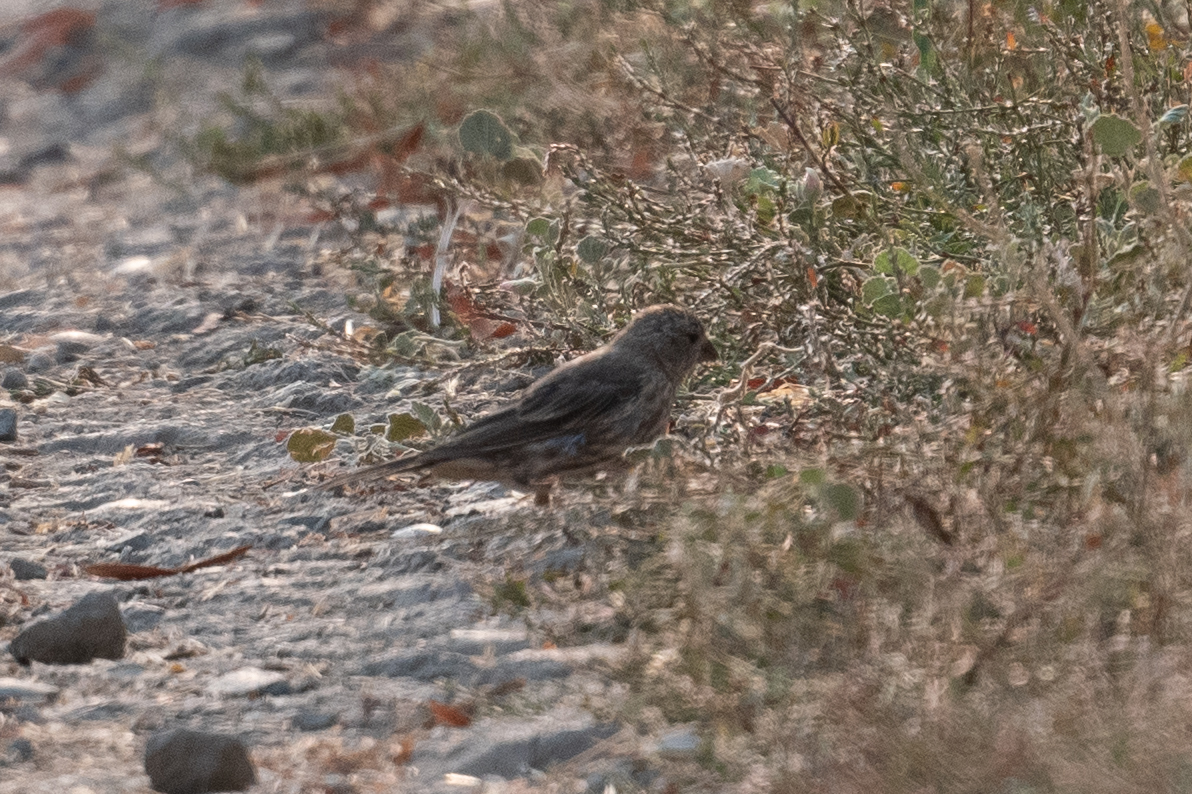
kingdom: Animalia
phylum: Chordata
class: Aves
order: Passeriformes
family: Fringillidae
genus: Haemorhous
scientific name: Haemorhous mexicanus
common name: House finch
